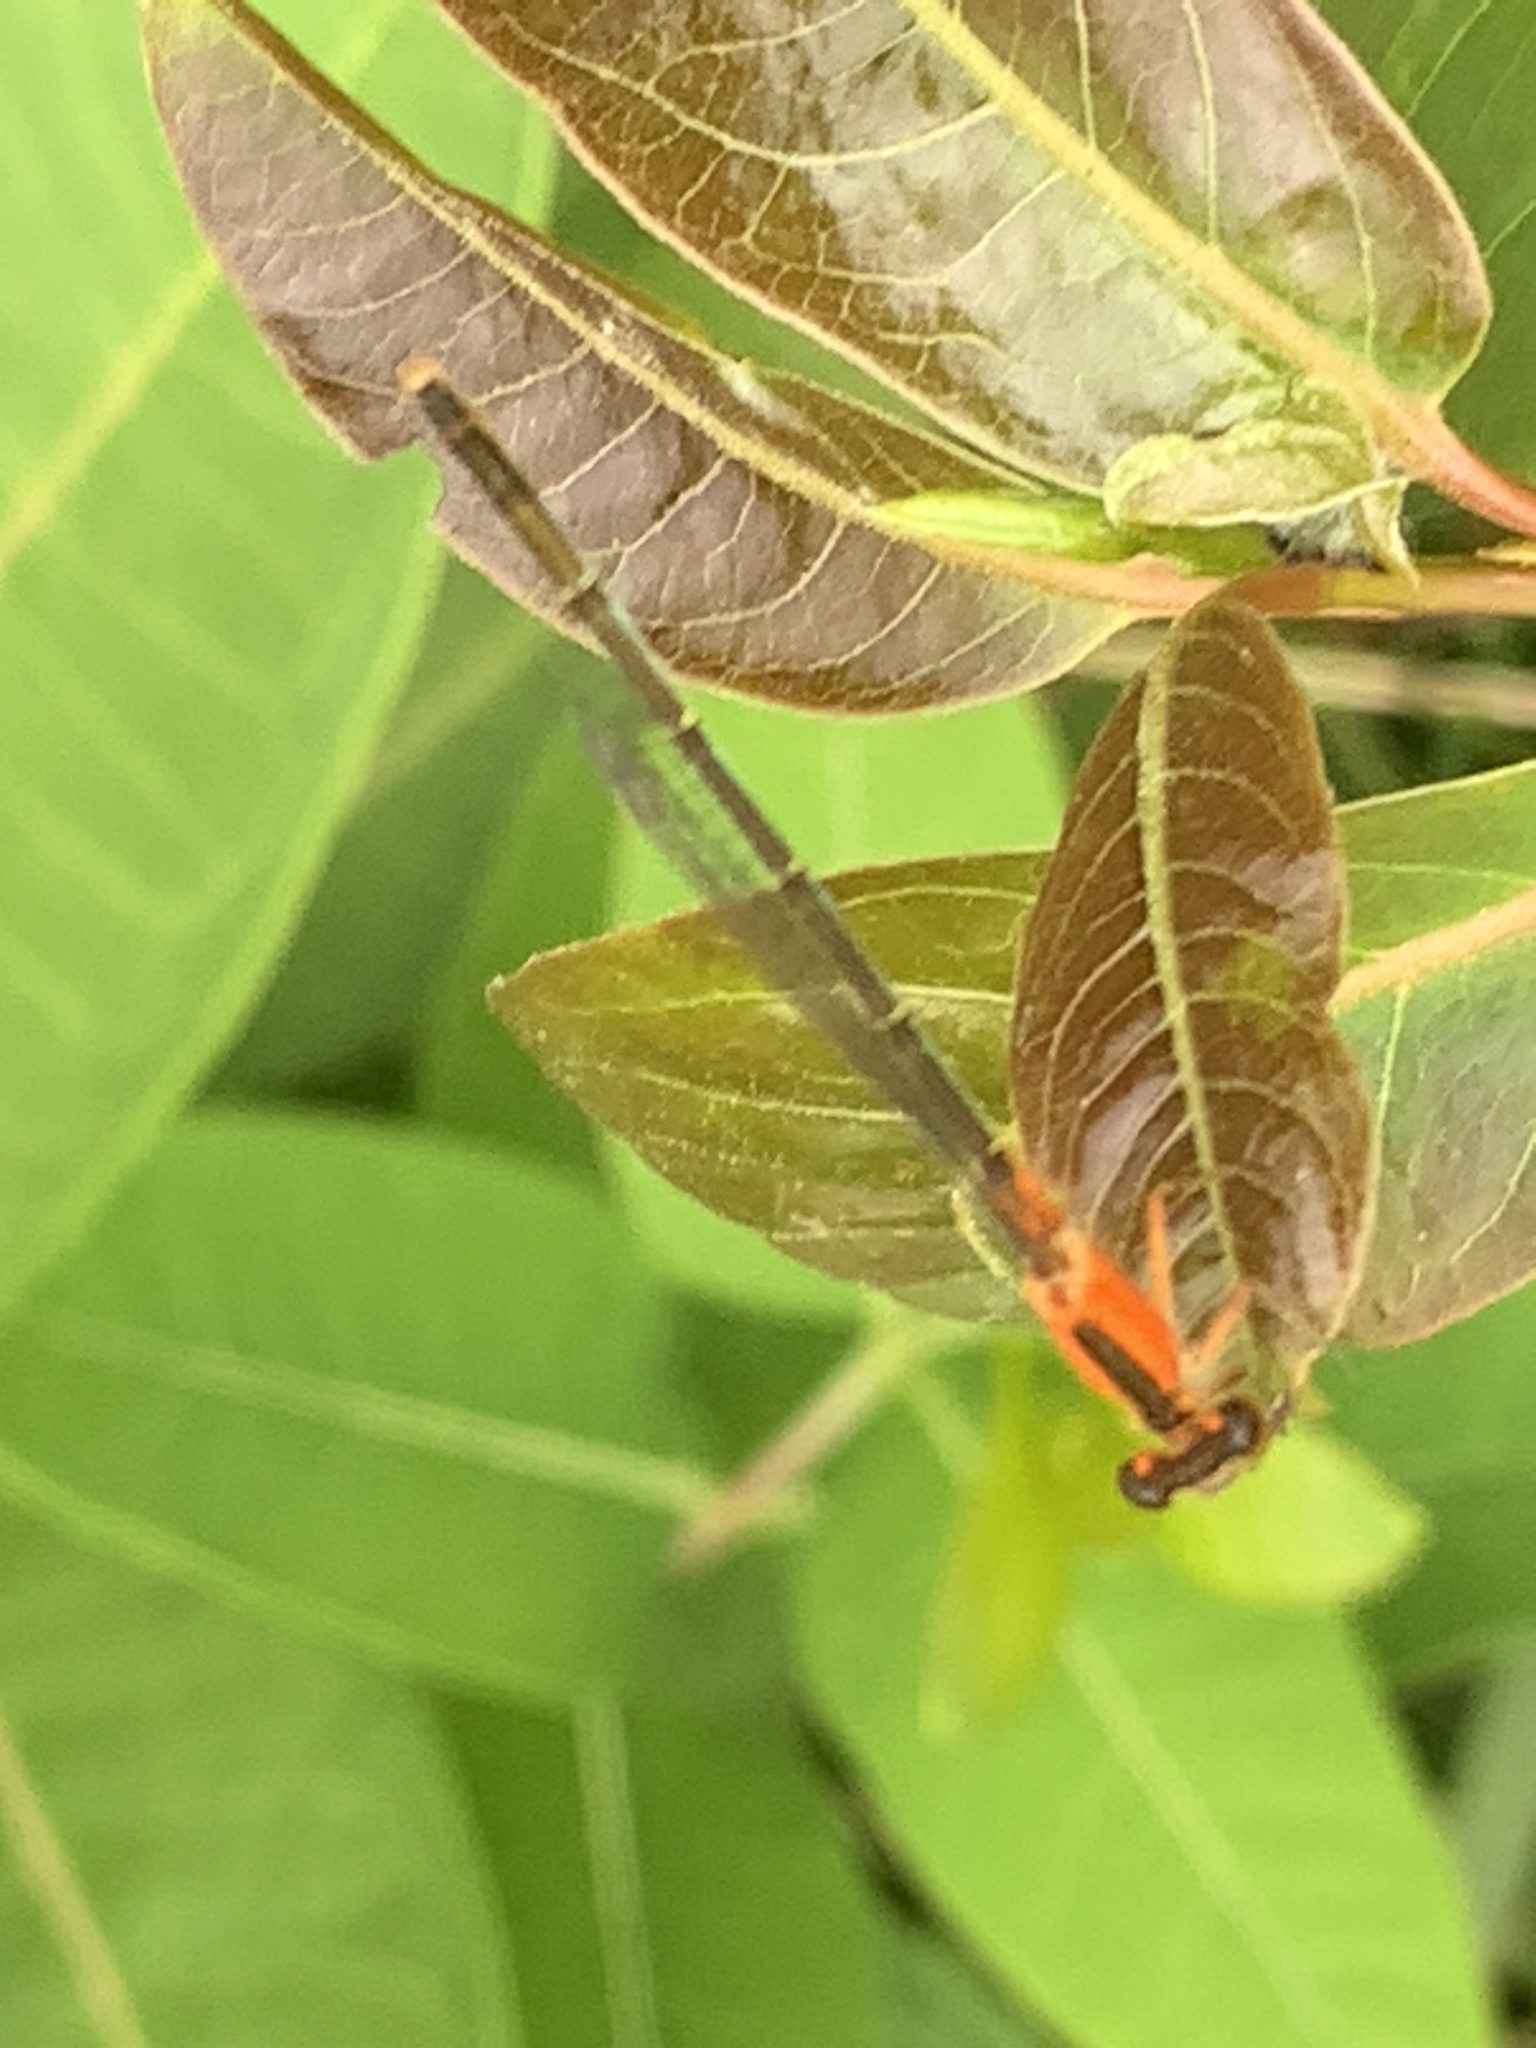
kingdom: Animalia
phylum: Arthropoda
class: Insecta
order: Odonata
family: Coenagrionidae
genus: Ischnura
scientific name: Ischnura ramburii
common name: Rambur's forktail
